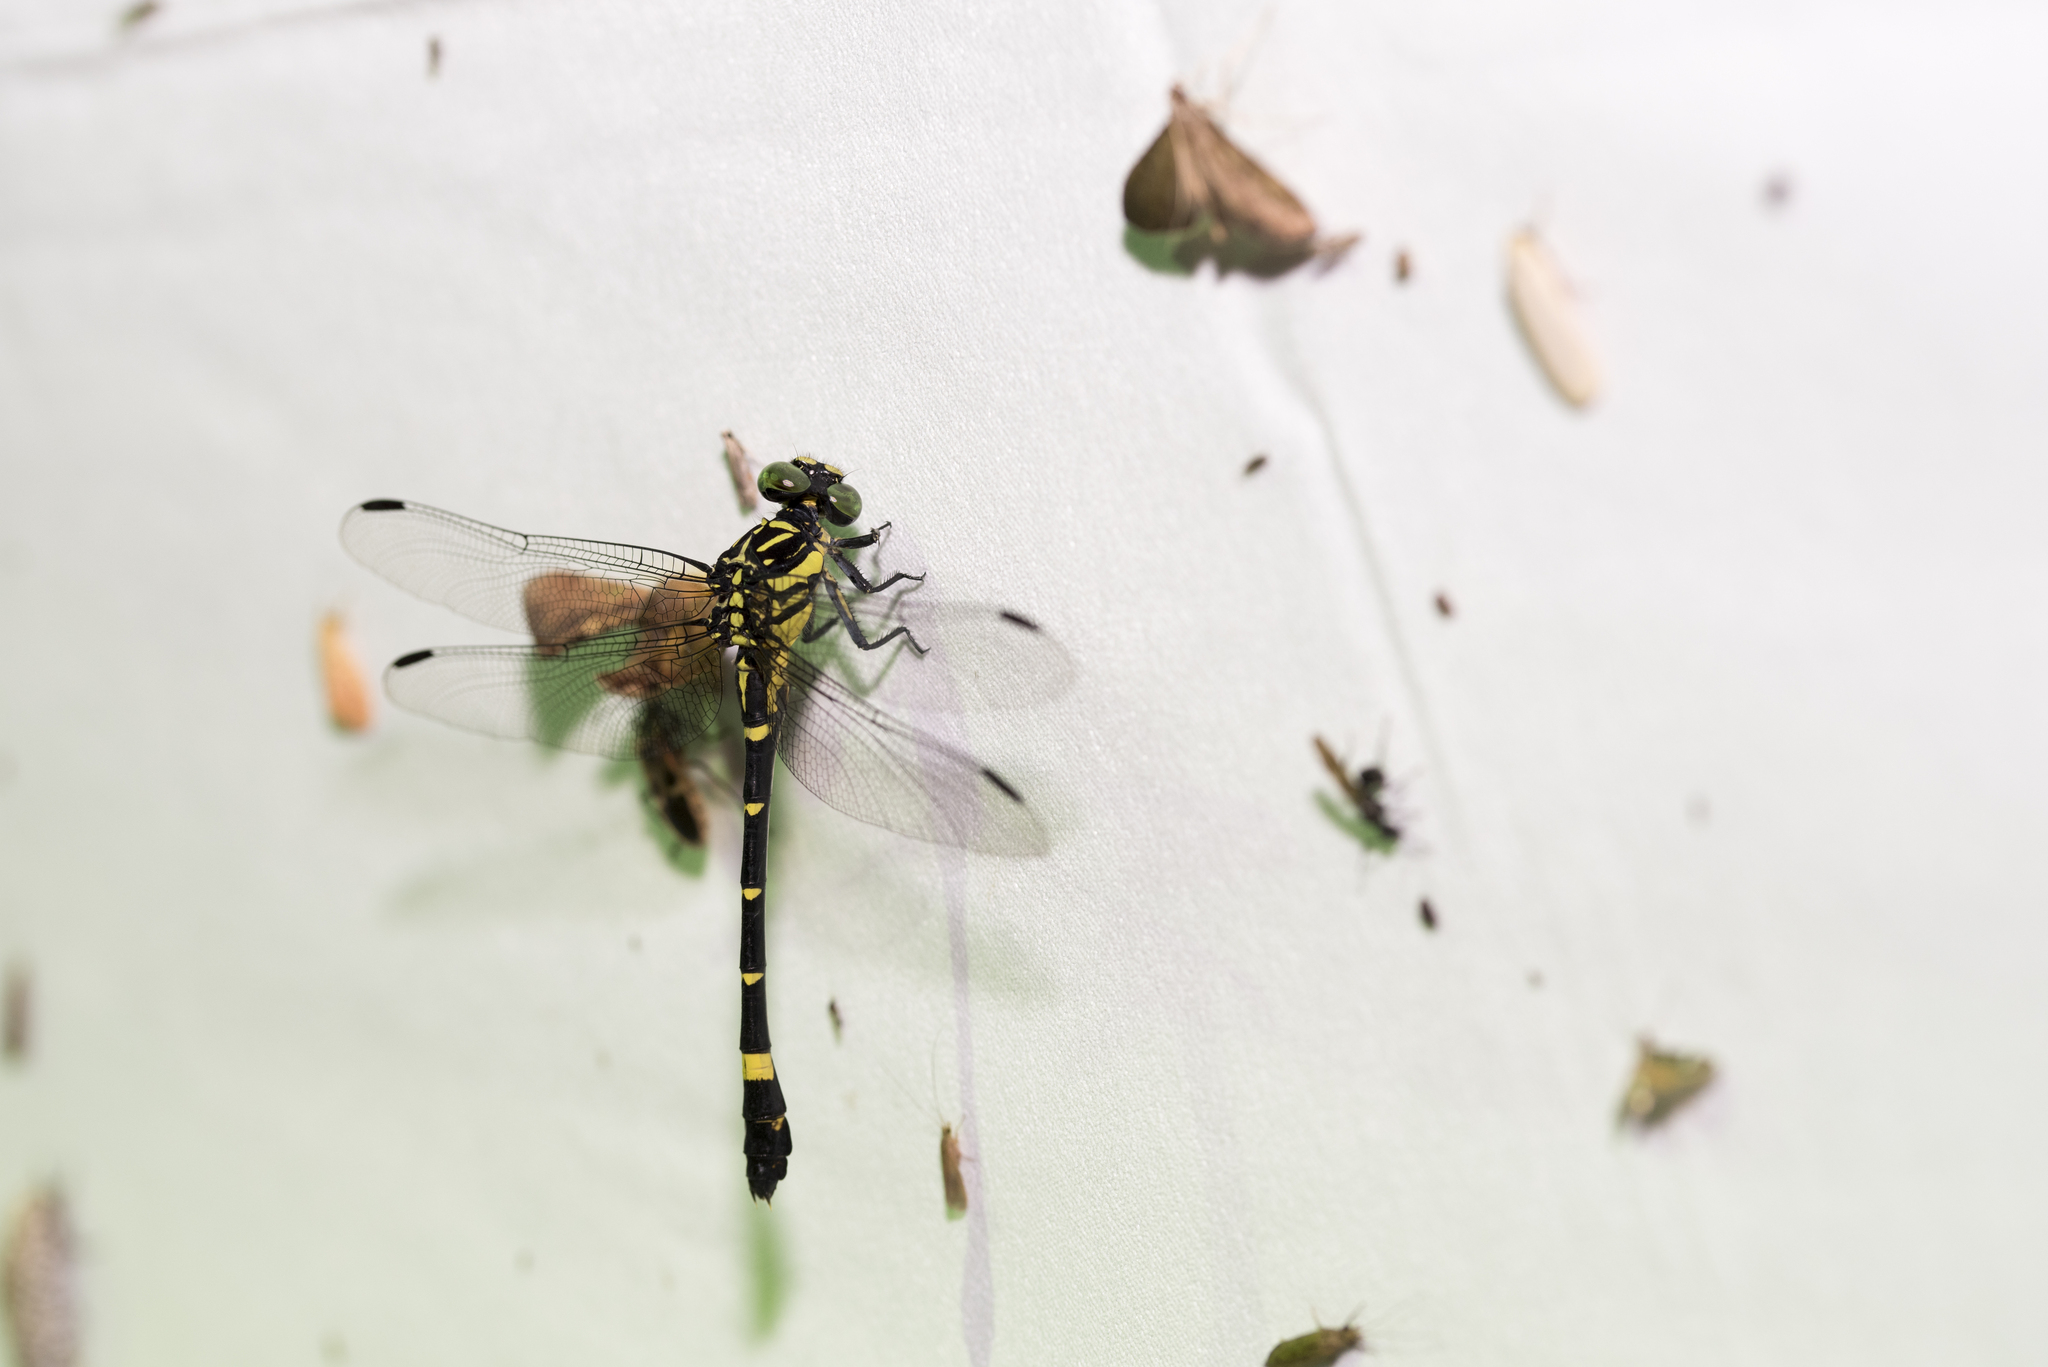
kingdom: Animalia
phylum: Arthropoda
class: Insecta
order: Odonata
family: Gomphidae
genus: Lamelligomphus
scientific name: Lamelligomphus formosanus
